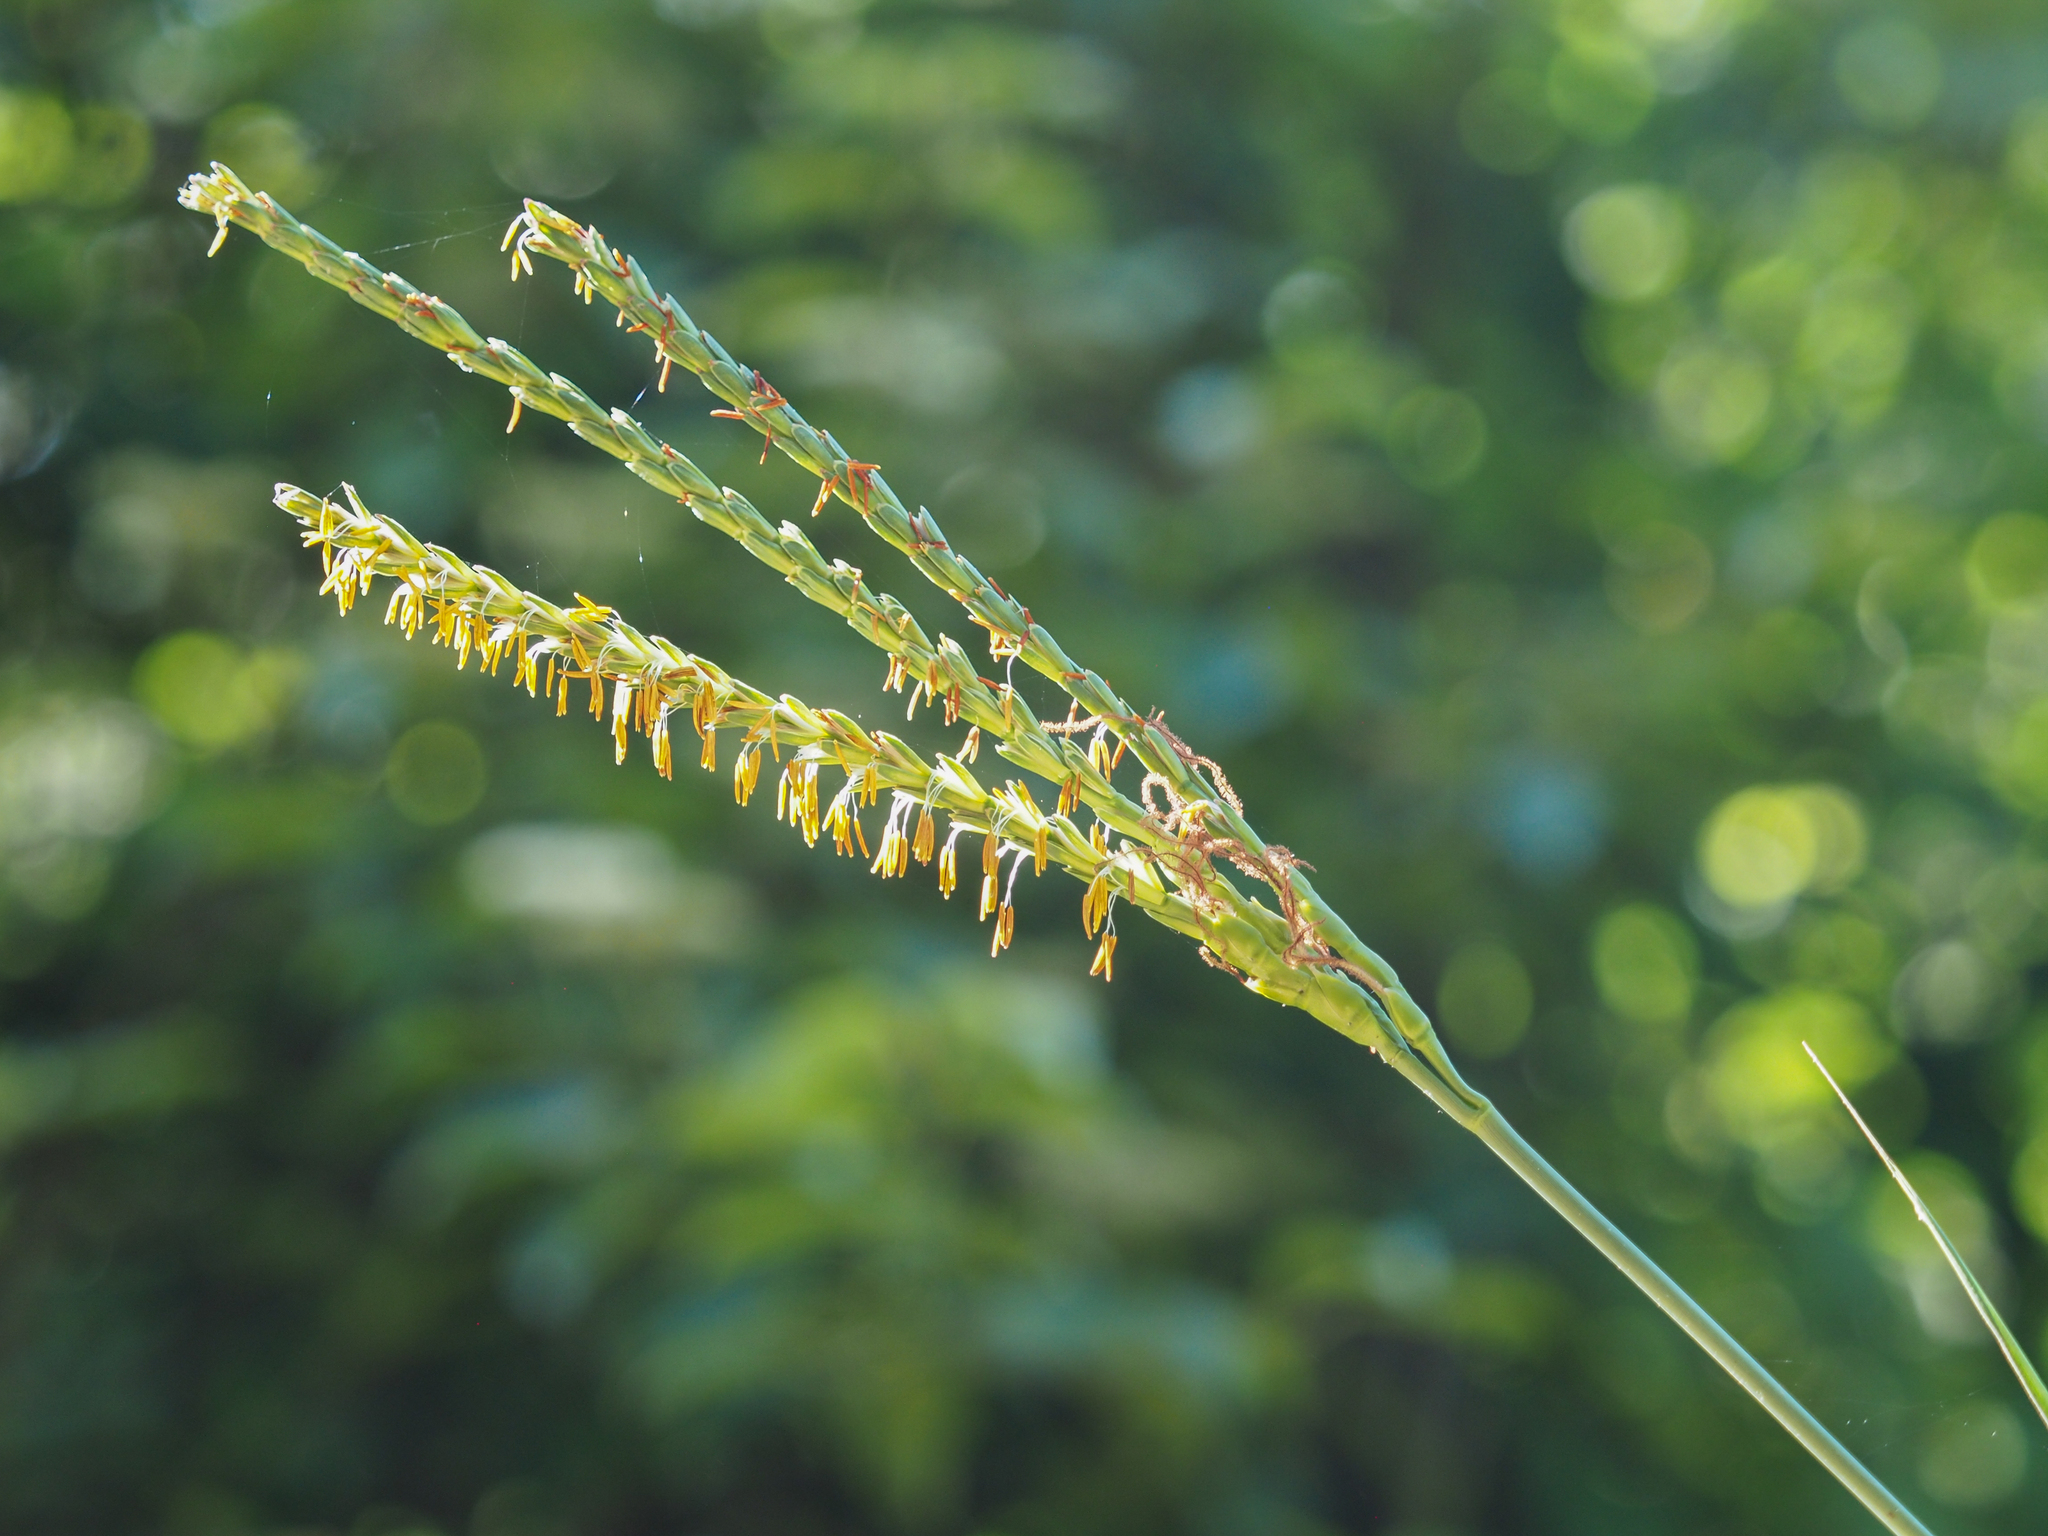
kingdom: Plantae
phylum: Tracheophyta
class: Liliopsida
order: Poales
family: Poaceae
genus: Tripsacum
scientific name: Tripsacum dactyloides
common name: Buffalo-grass
